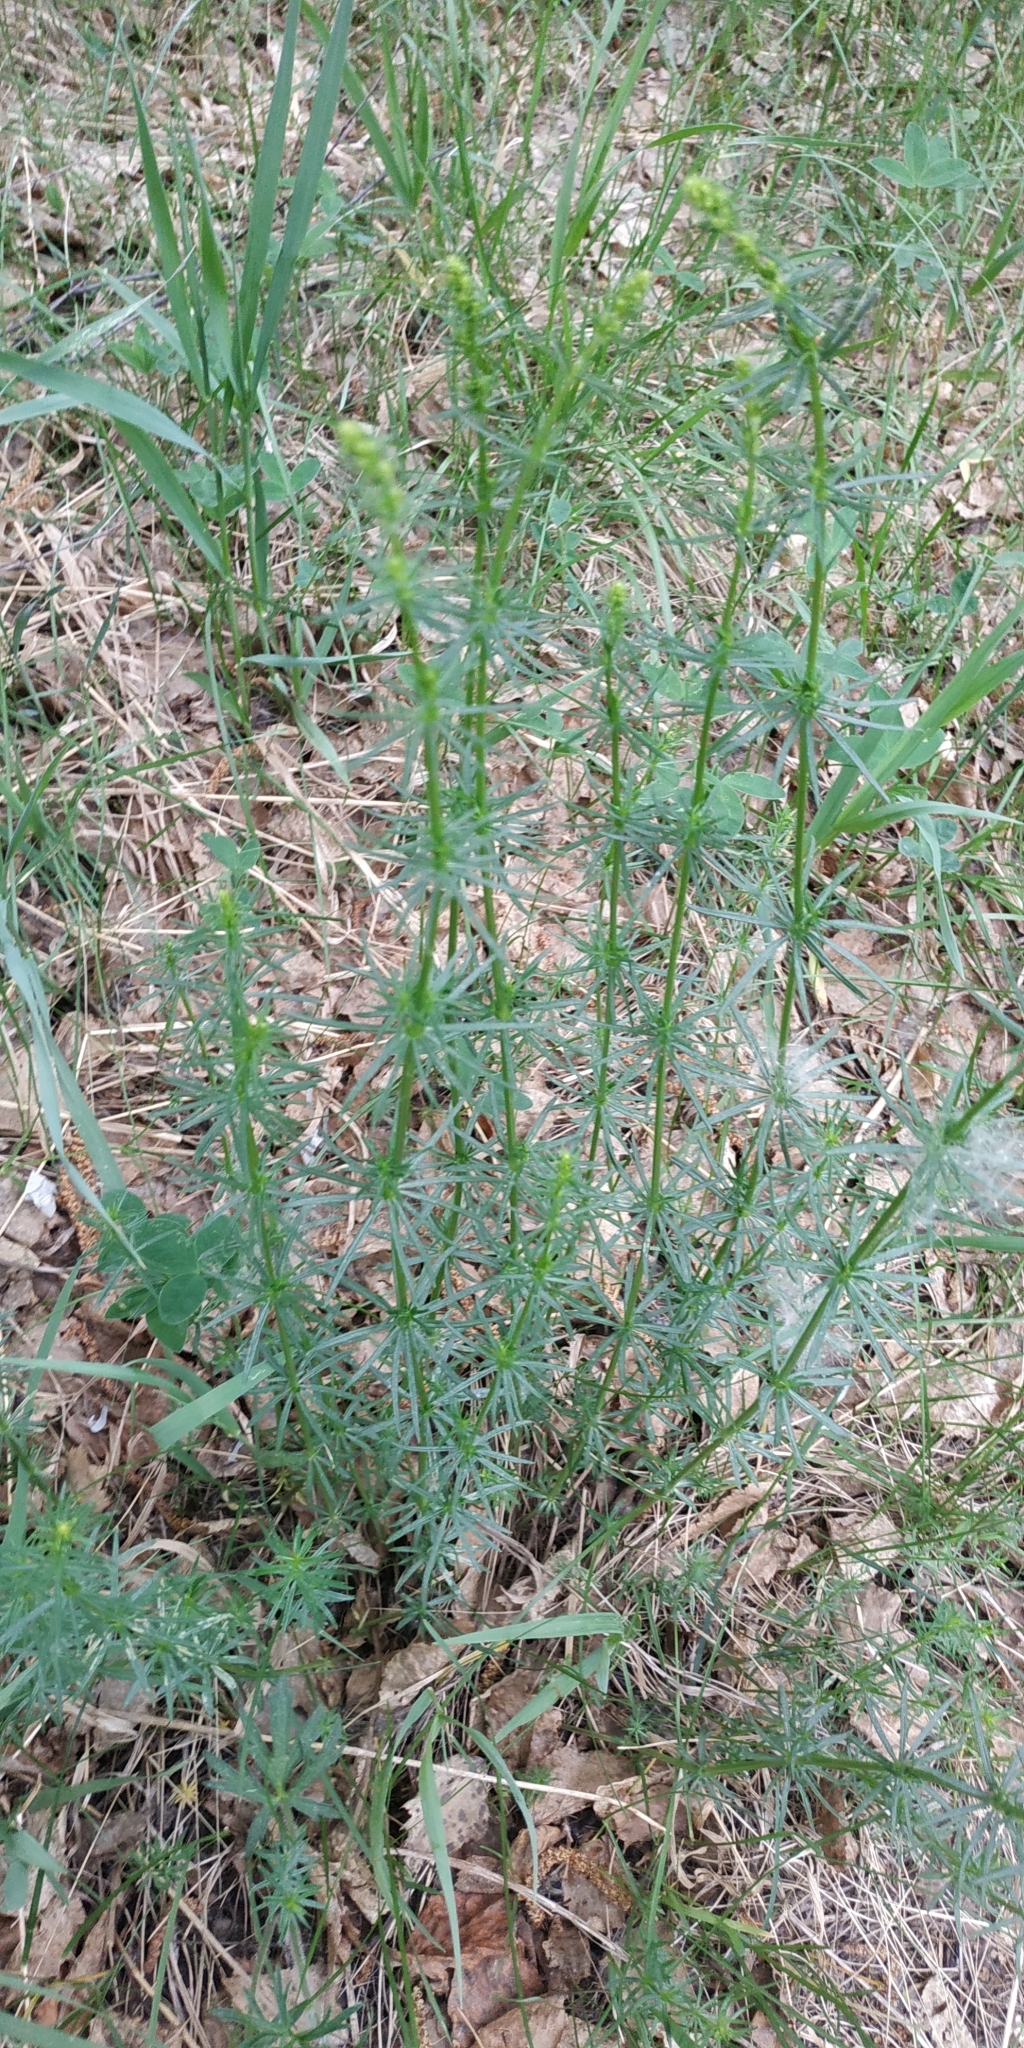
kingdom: Plantae
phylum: Tracheophyta
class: Magnoliopsida
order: Gentianales
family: Rubiaceae
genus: Galium
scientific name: Galium verum
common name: Lady's bedstraw
